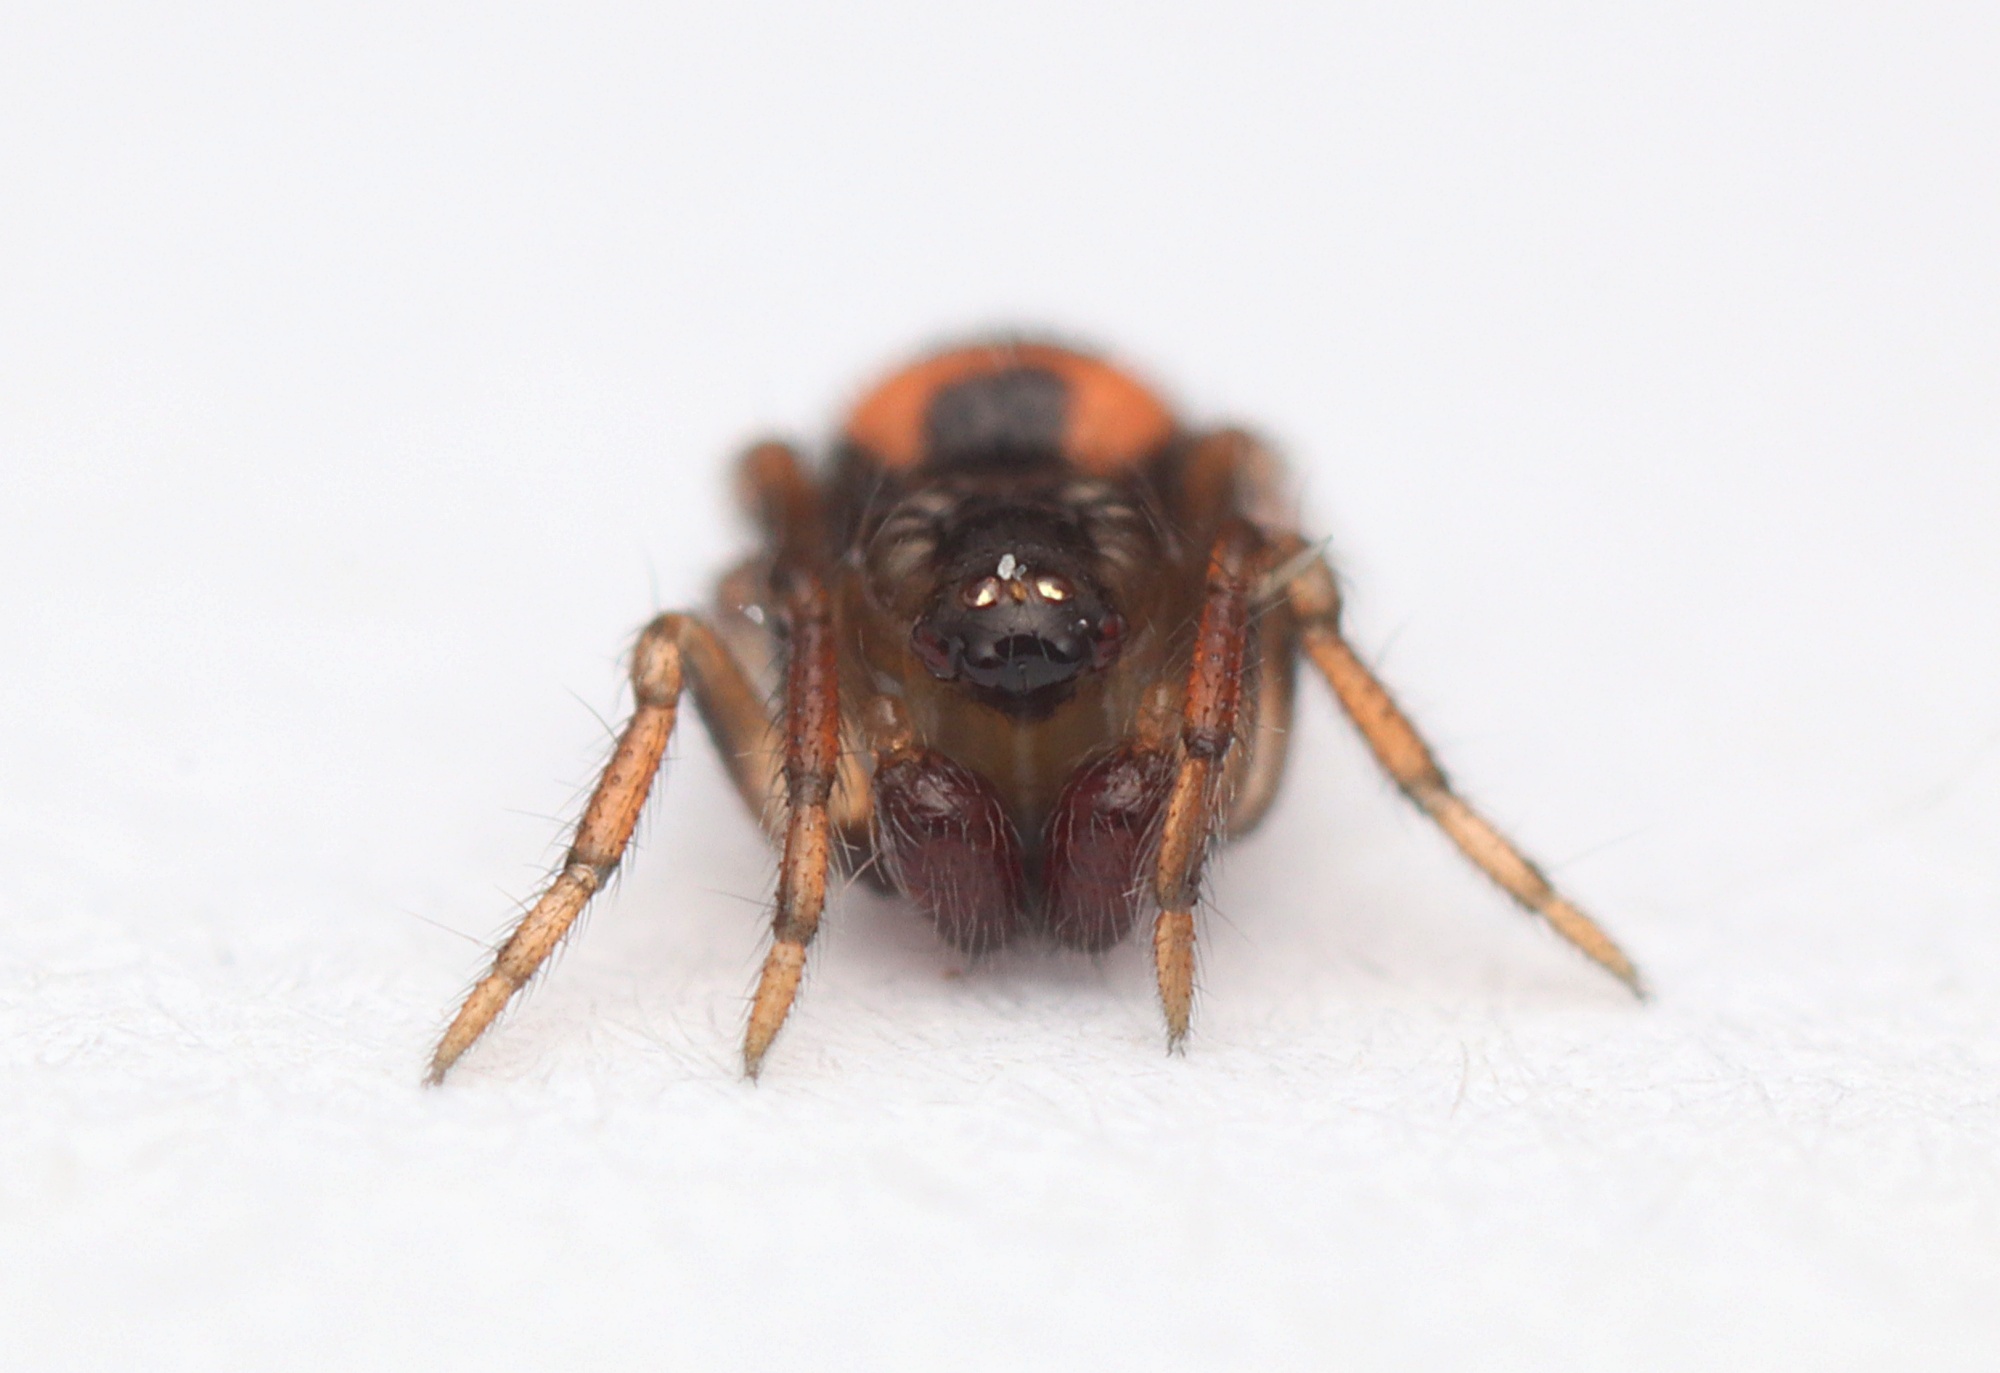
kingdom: Animalia
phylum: Arthropoda
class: Arachnida
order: Araneae
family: Theridiidae
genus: Phycosoma
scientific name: Phycosoma oecobioides
